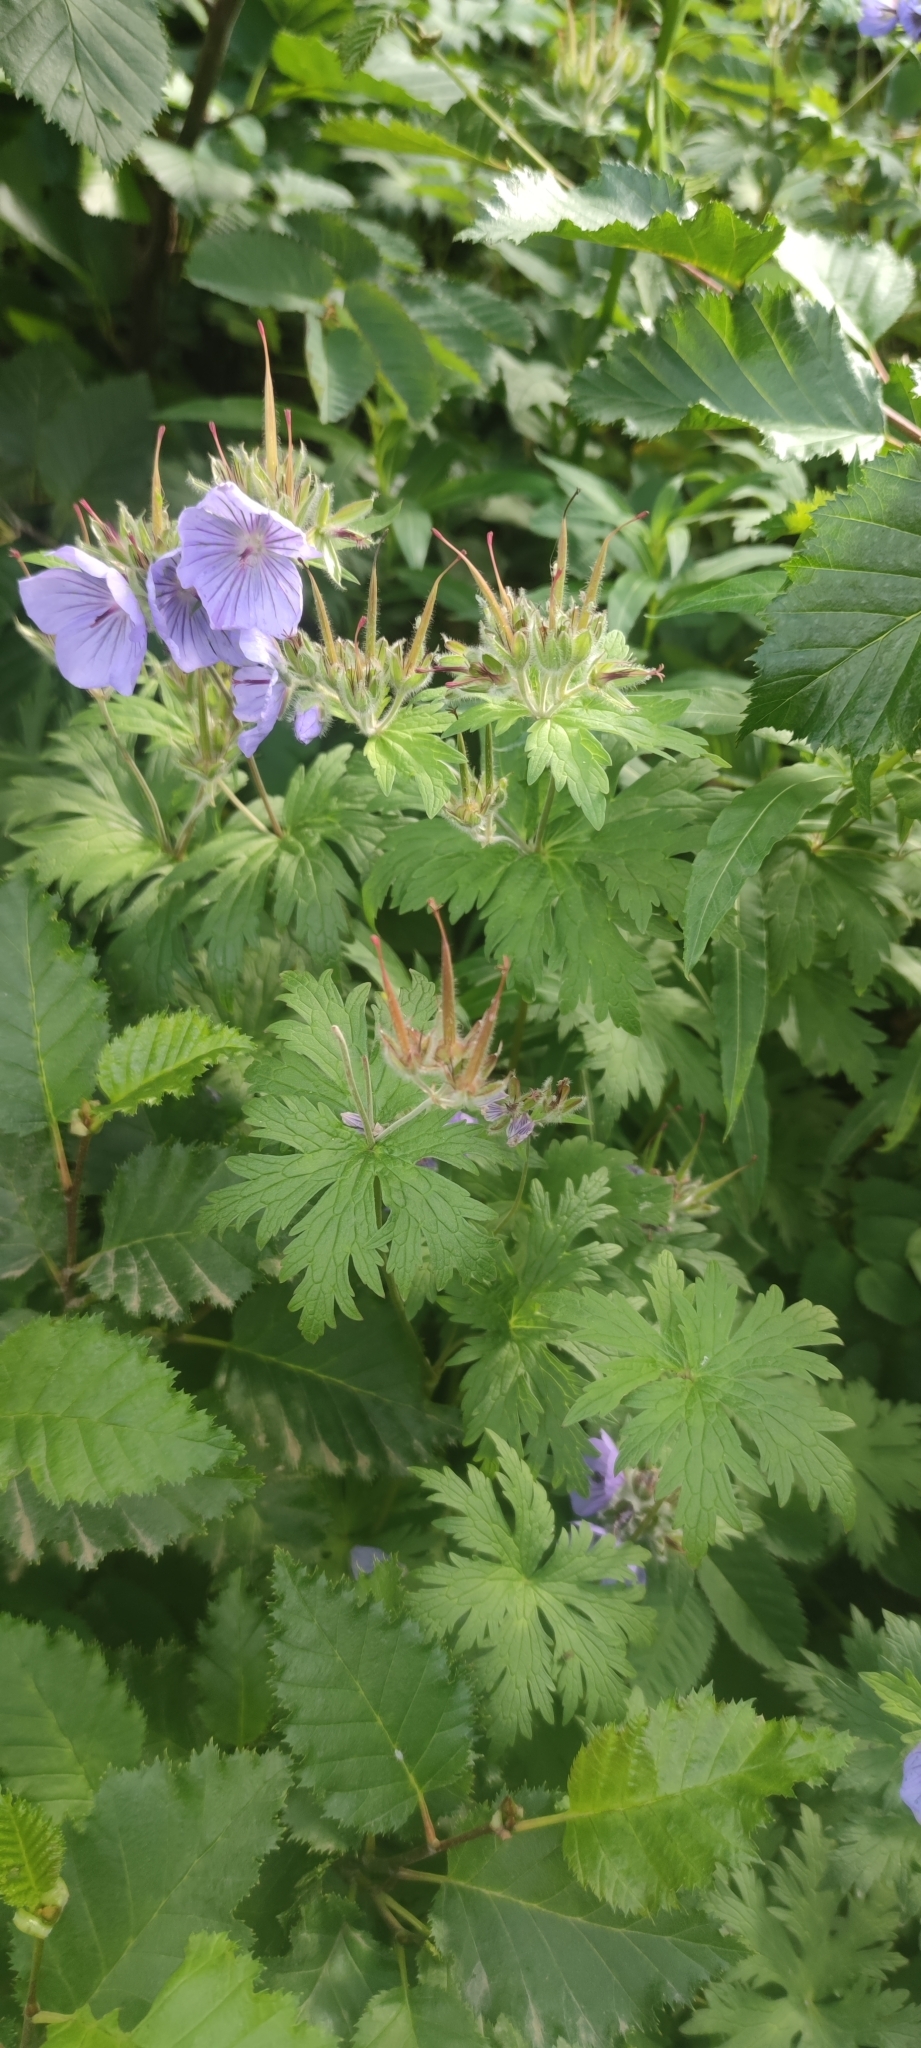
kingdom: Plantae
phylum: Tracheophyta
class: Magnoliopsida
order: Geraniales
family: Geraniaceae
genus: Geranium
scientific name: Geranium erianthum
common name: Northern crane's-bill
